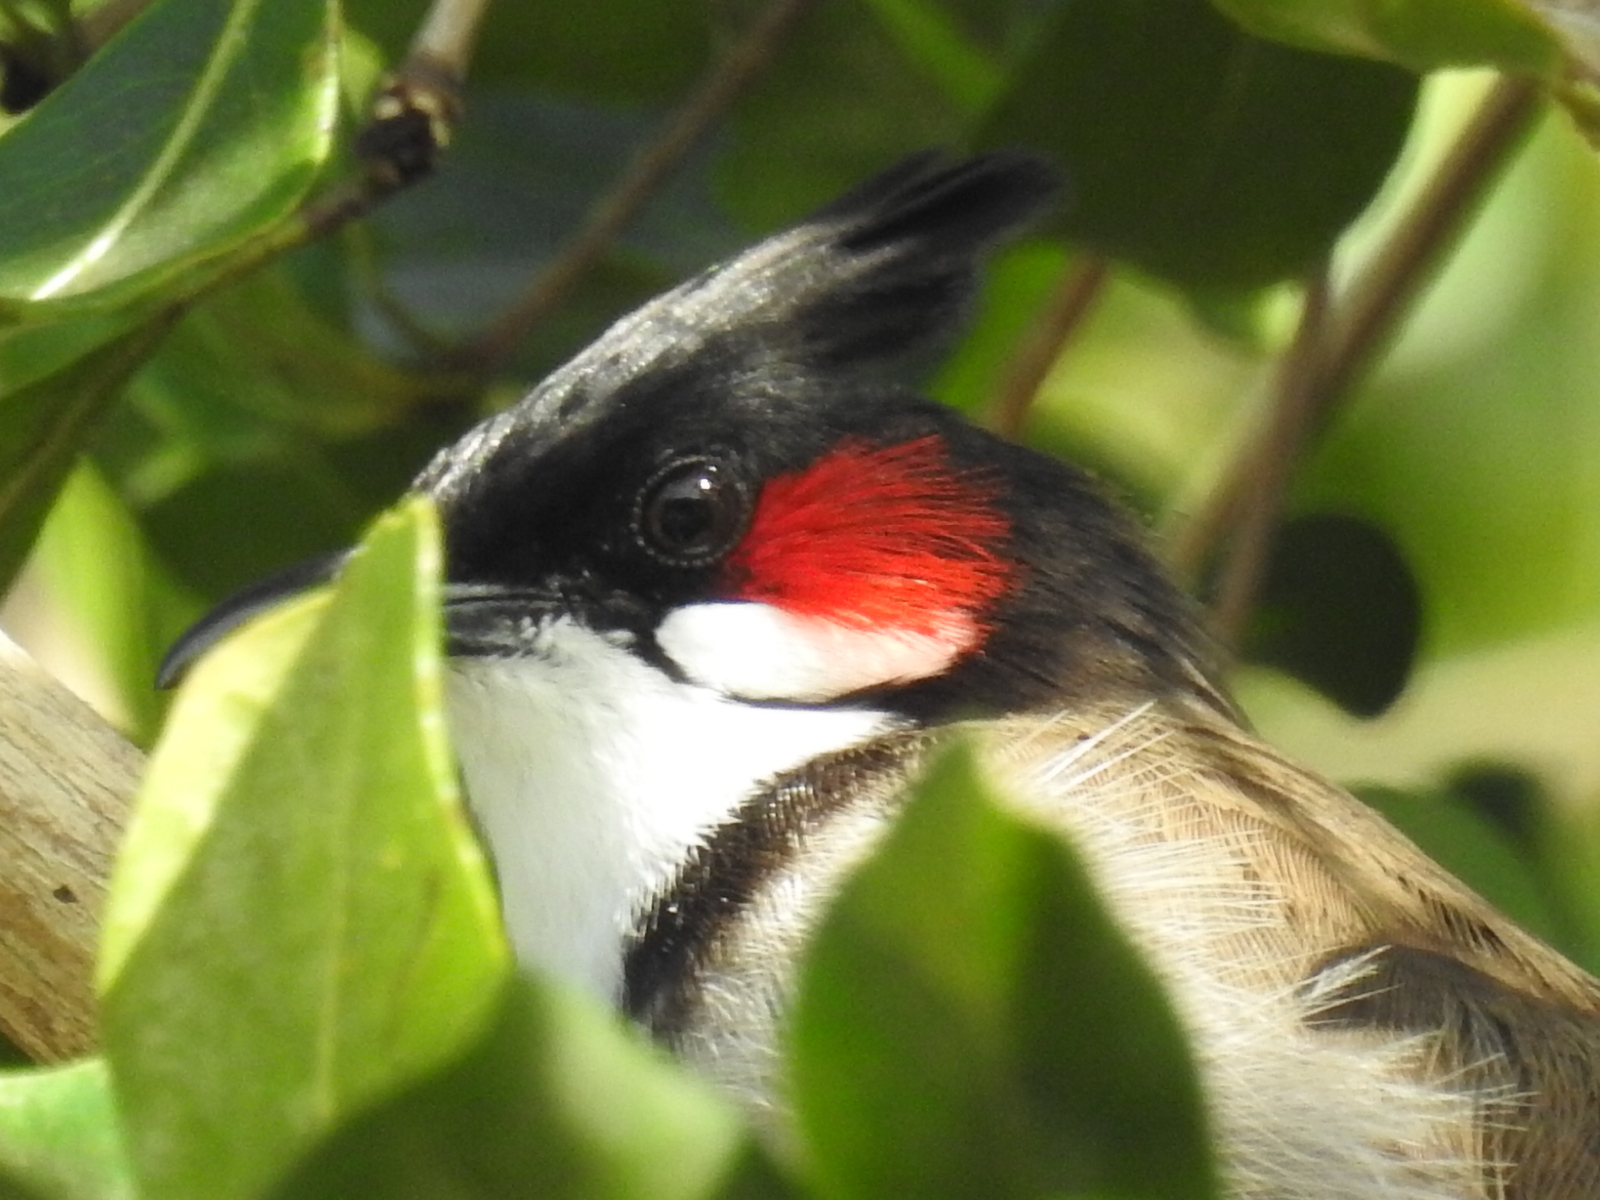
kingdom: Animalia
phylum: Chordata
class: Aves
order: Passeriformes
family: Pycnonotidae
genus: Pycnonotus
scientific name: Pycnonotus jocosus
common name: Red-whiskered bulbul
